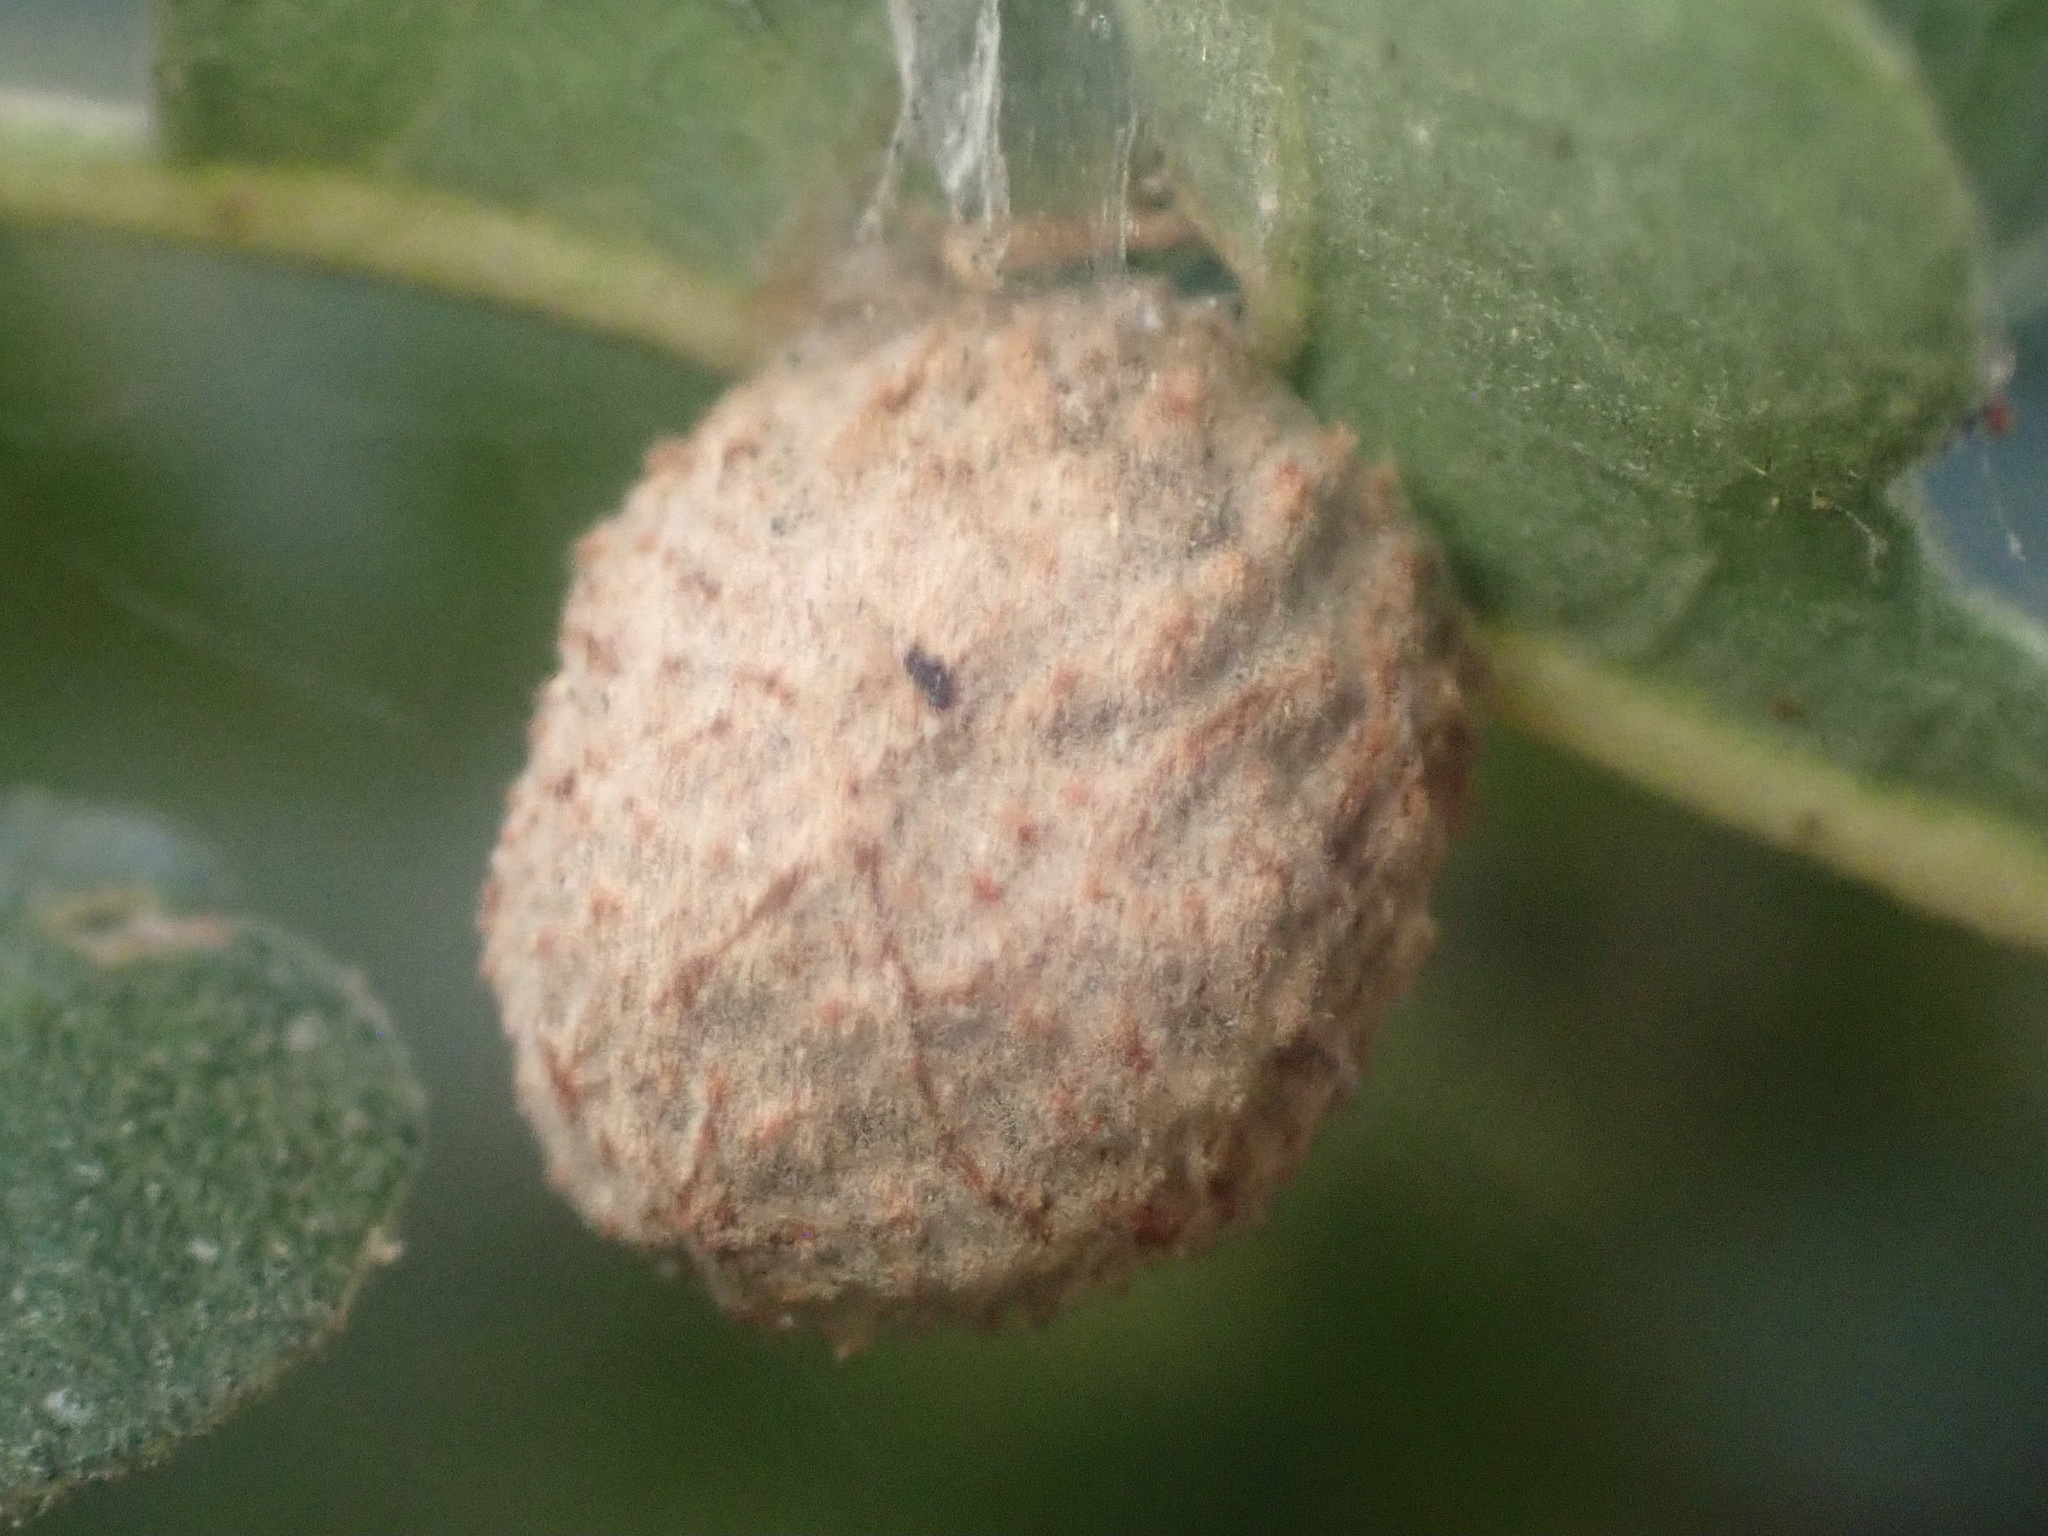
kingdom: Animalia
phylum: Arthropoda
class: Insecta
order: Hymenoptera
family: Cynipidae
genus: Cynips
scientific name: Cynips conspicua
